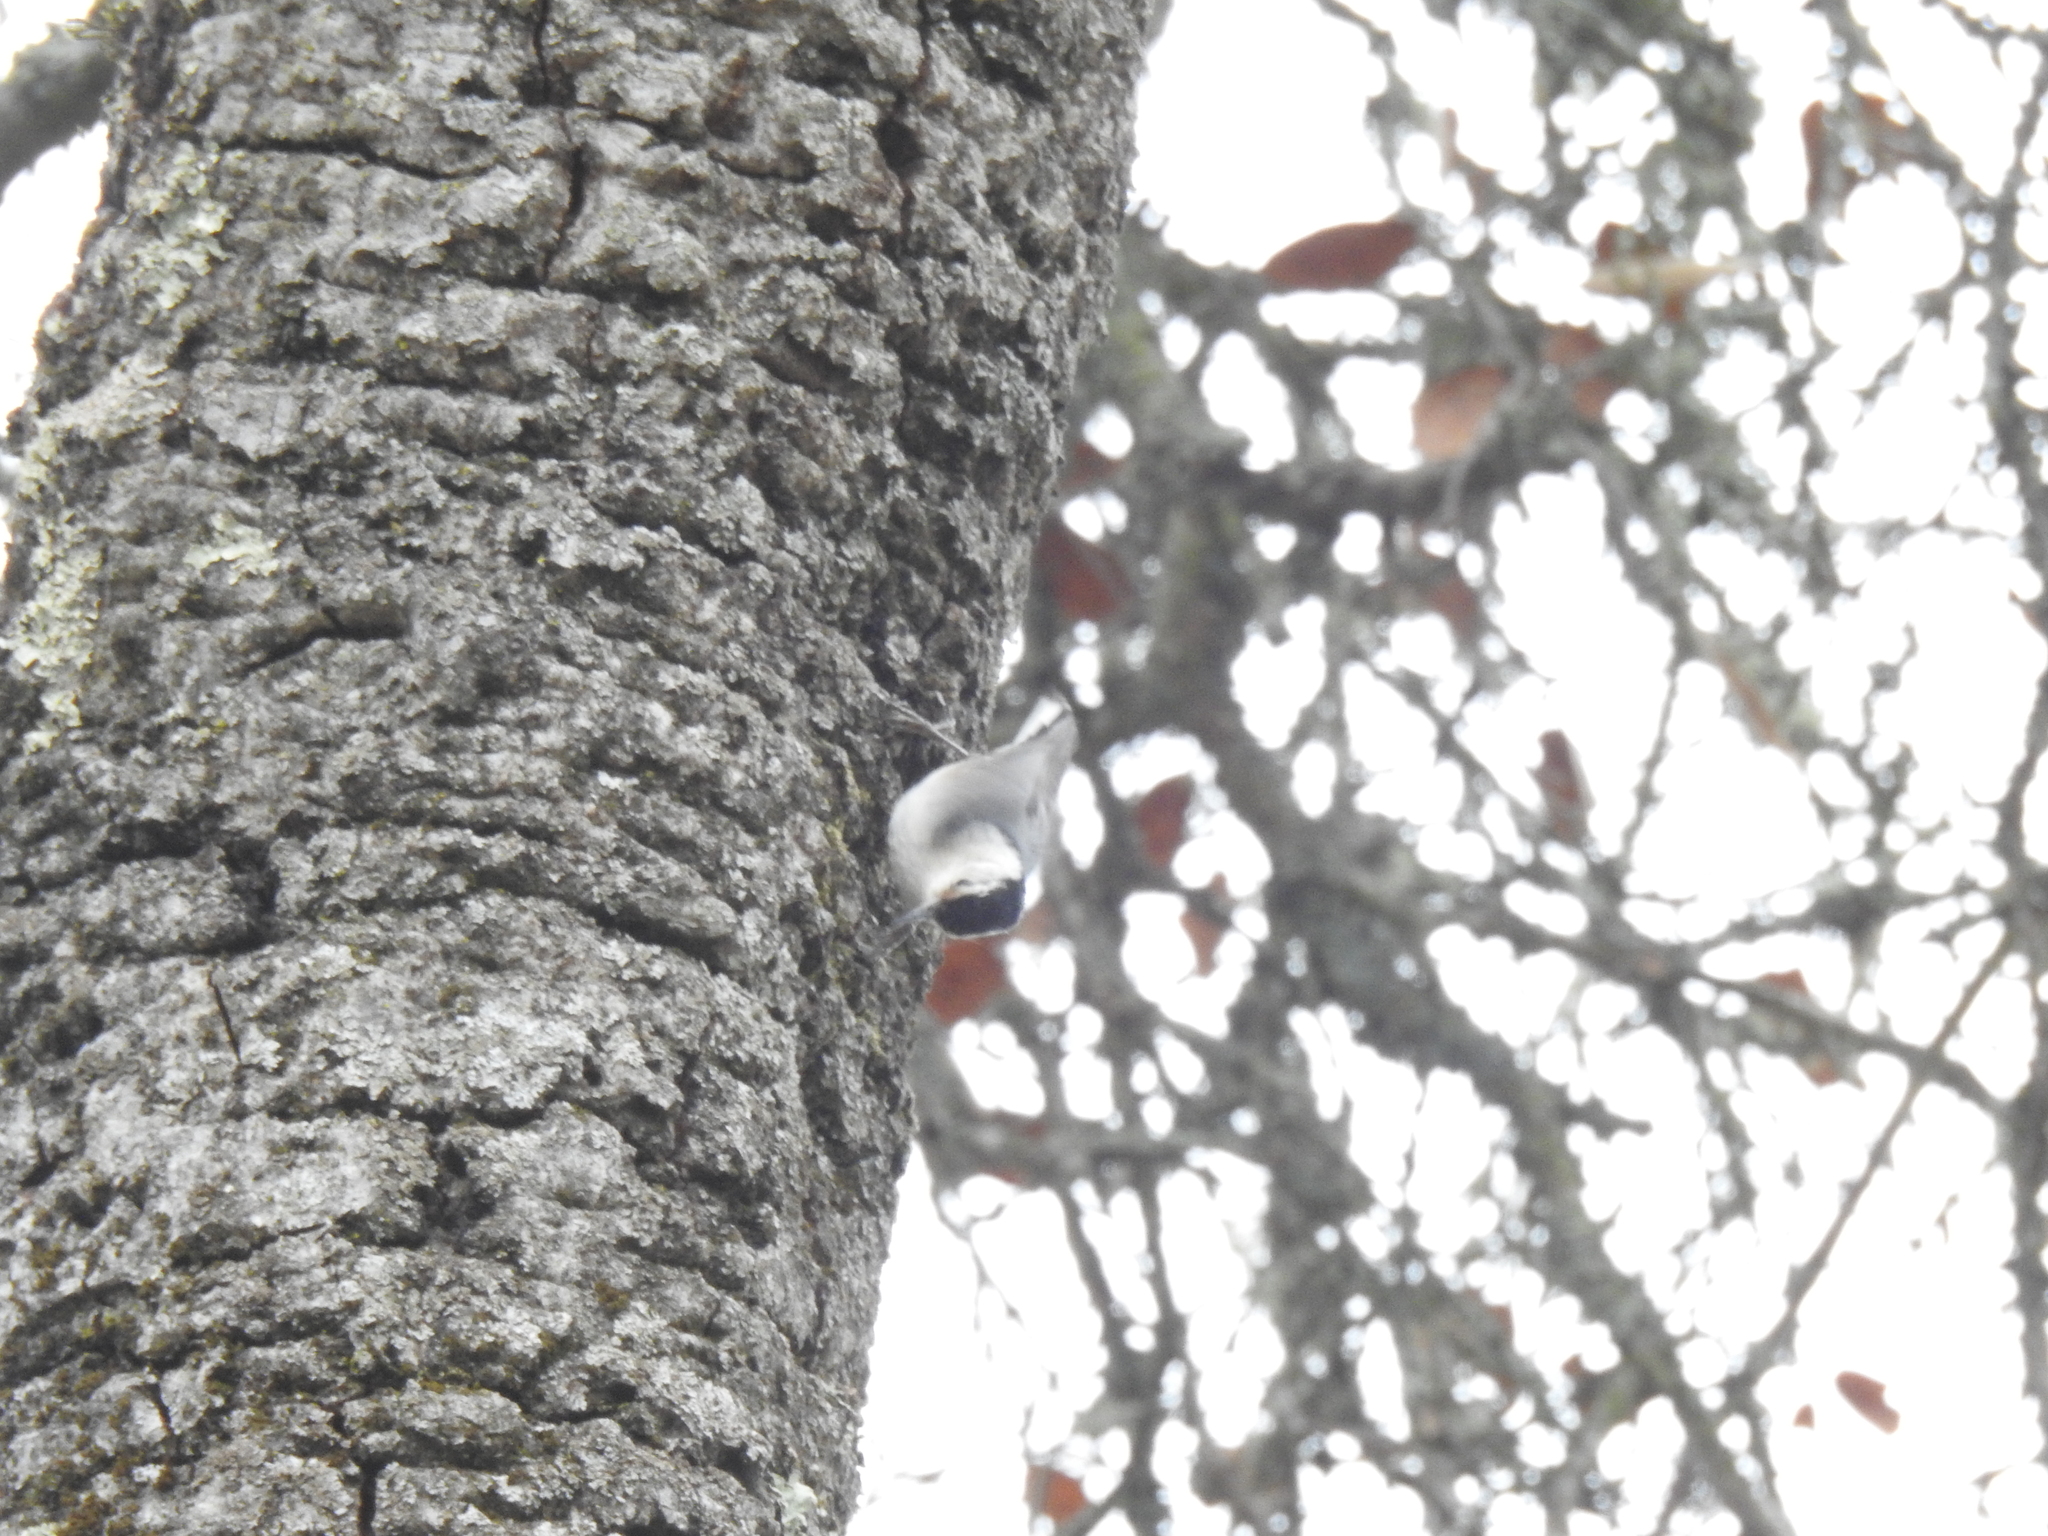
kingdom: Animalia
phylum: Chordata
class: Aves
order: Passeriformes
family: Sittidae
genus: Sitta
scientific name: Sitta carolinensis
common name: White-breasted nuthatch
